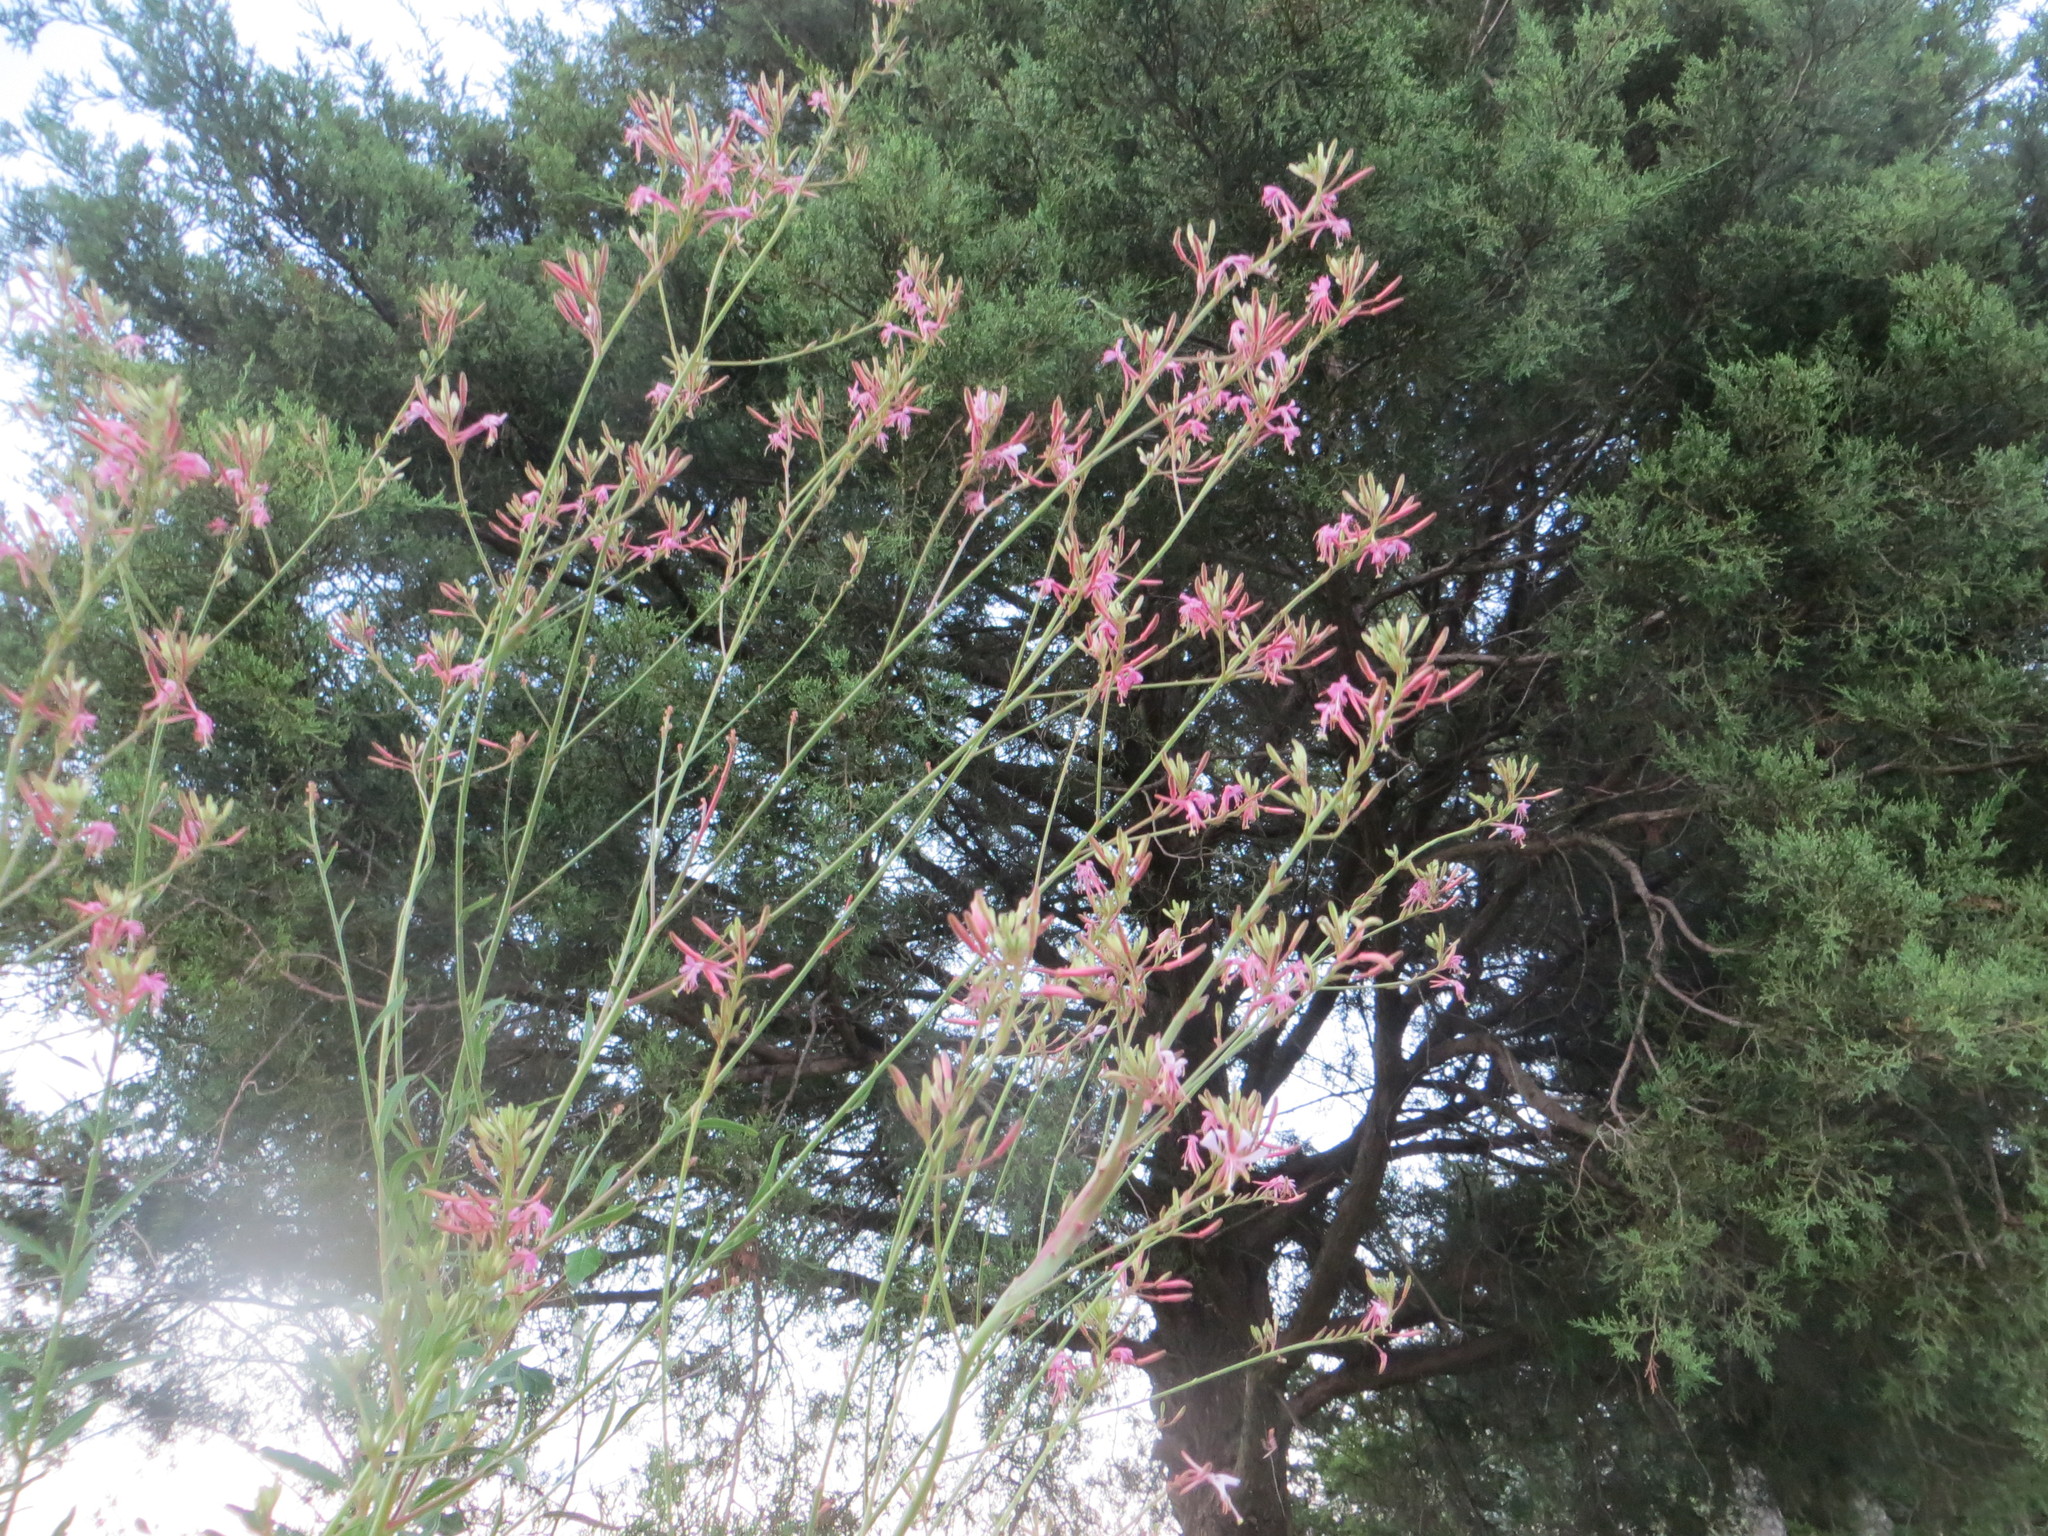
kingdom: Plantae
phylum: Tracheophyta
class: Magnoliopsida
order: Myrtales
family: Onagraceae
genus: Oenothera
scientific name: Oenothera filiformis
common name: Longflower beeblossom
